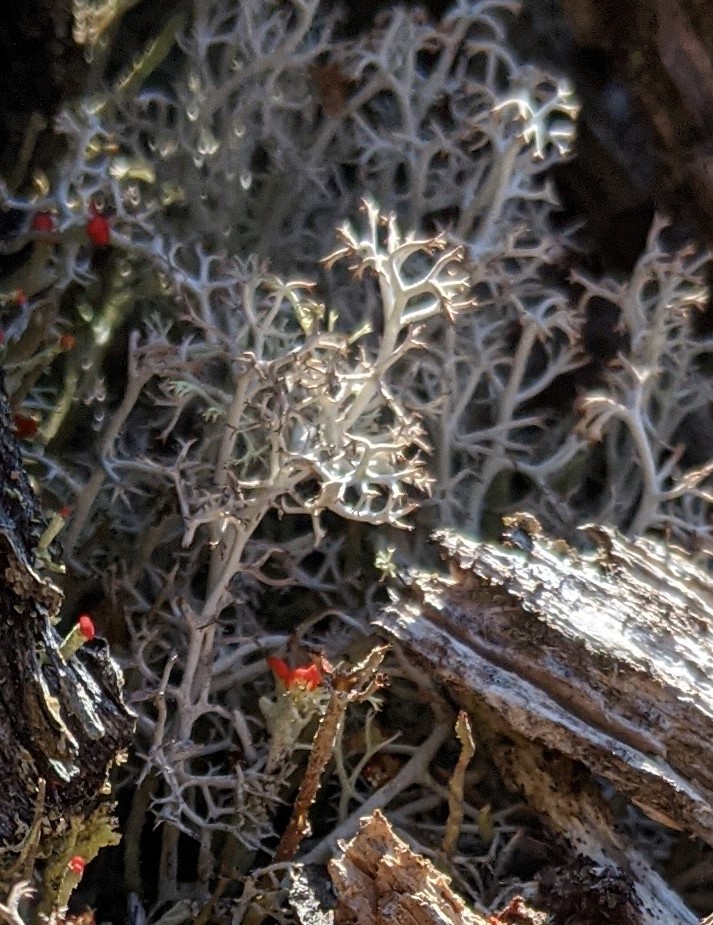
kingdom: Fungi
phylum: Ascomycota
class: Lecanoromycetes
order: Lecanorales
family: Cladoniaceae
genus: Cladonia
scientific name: Cladonia rangiferina
